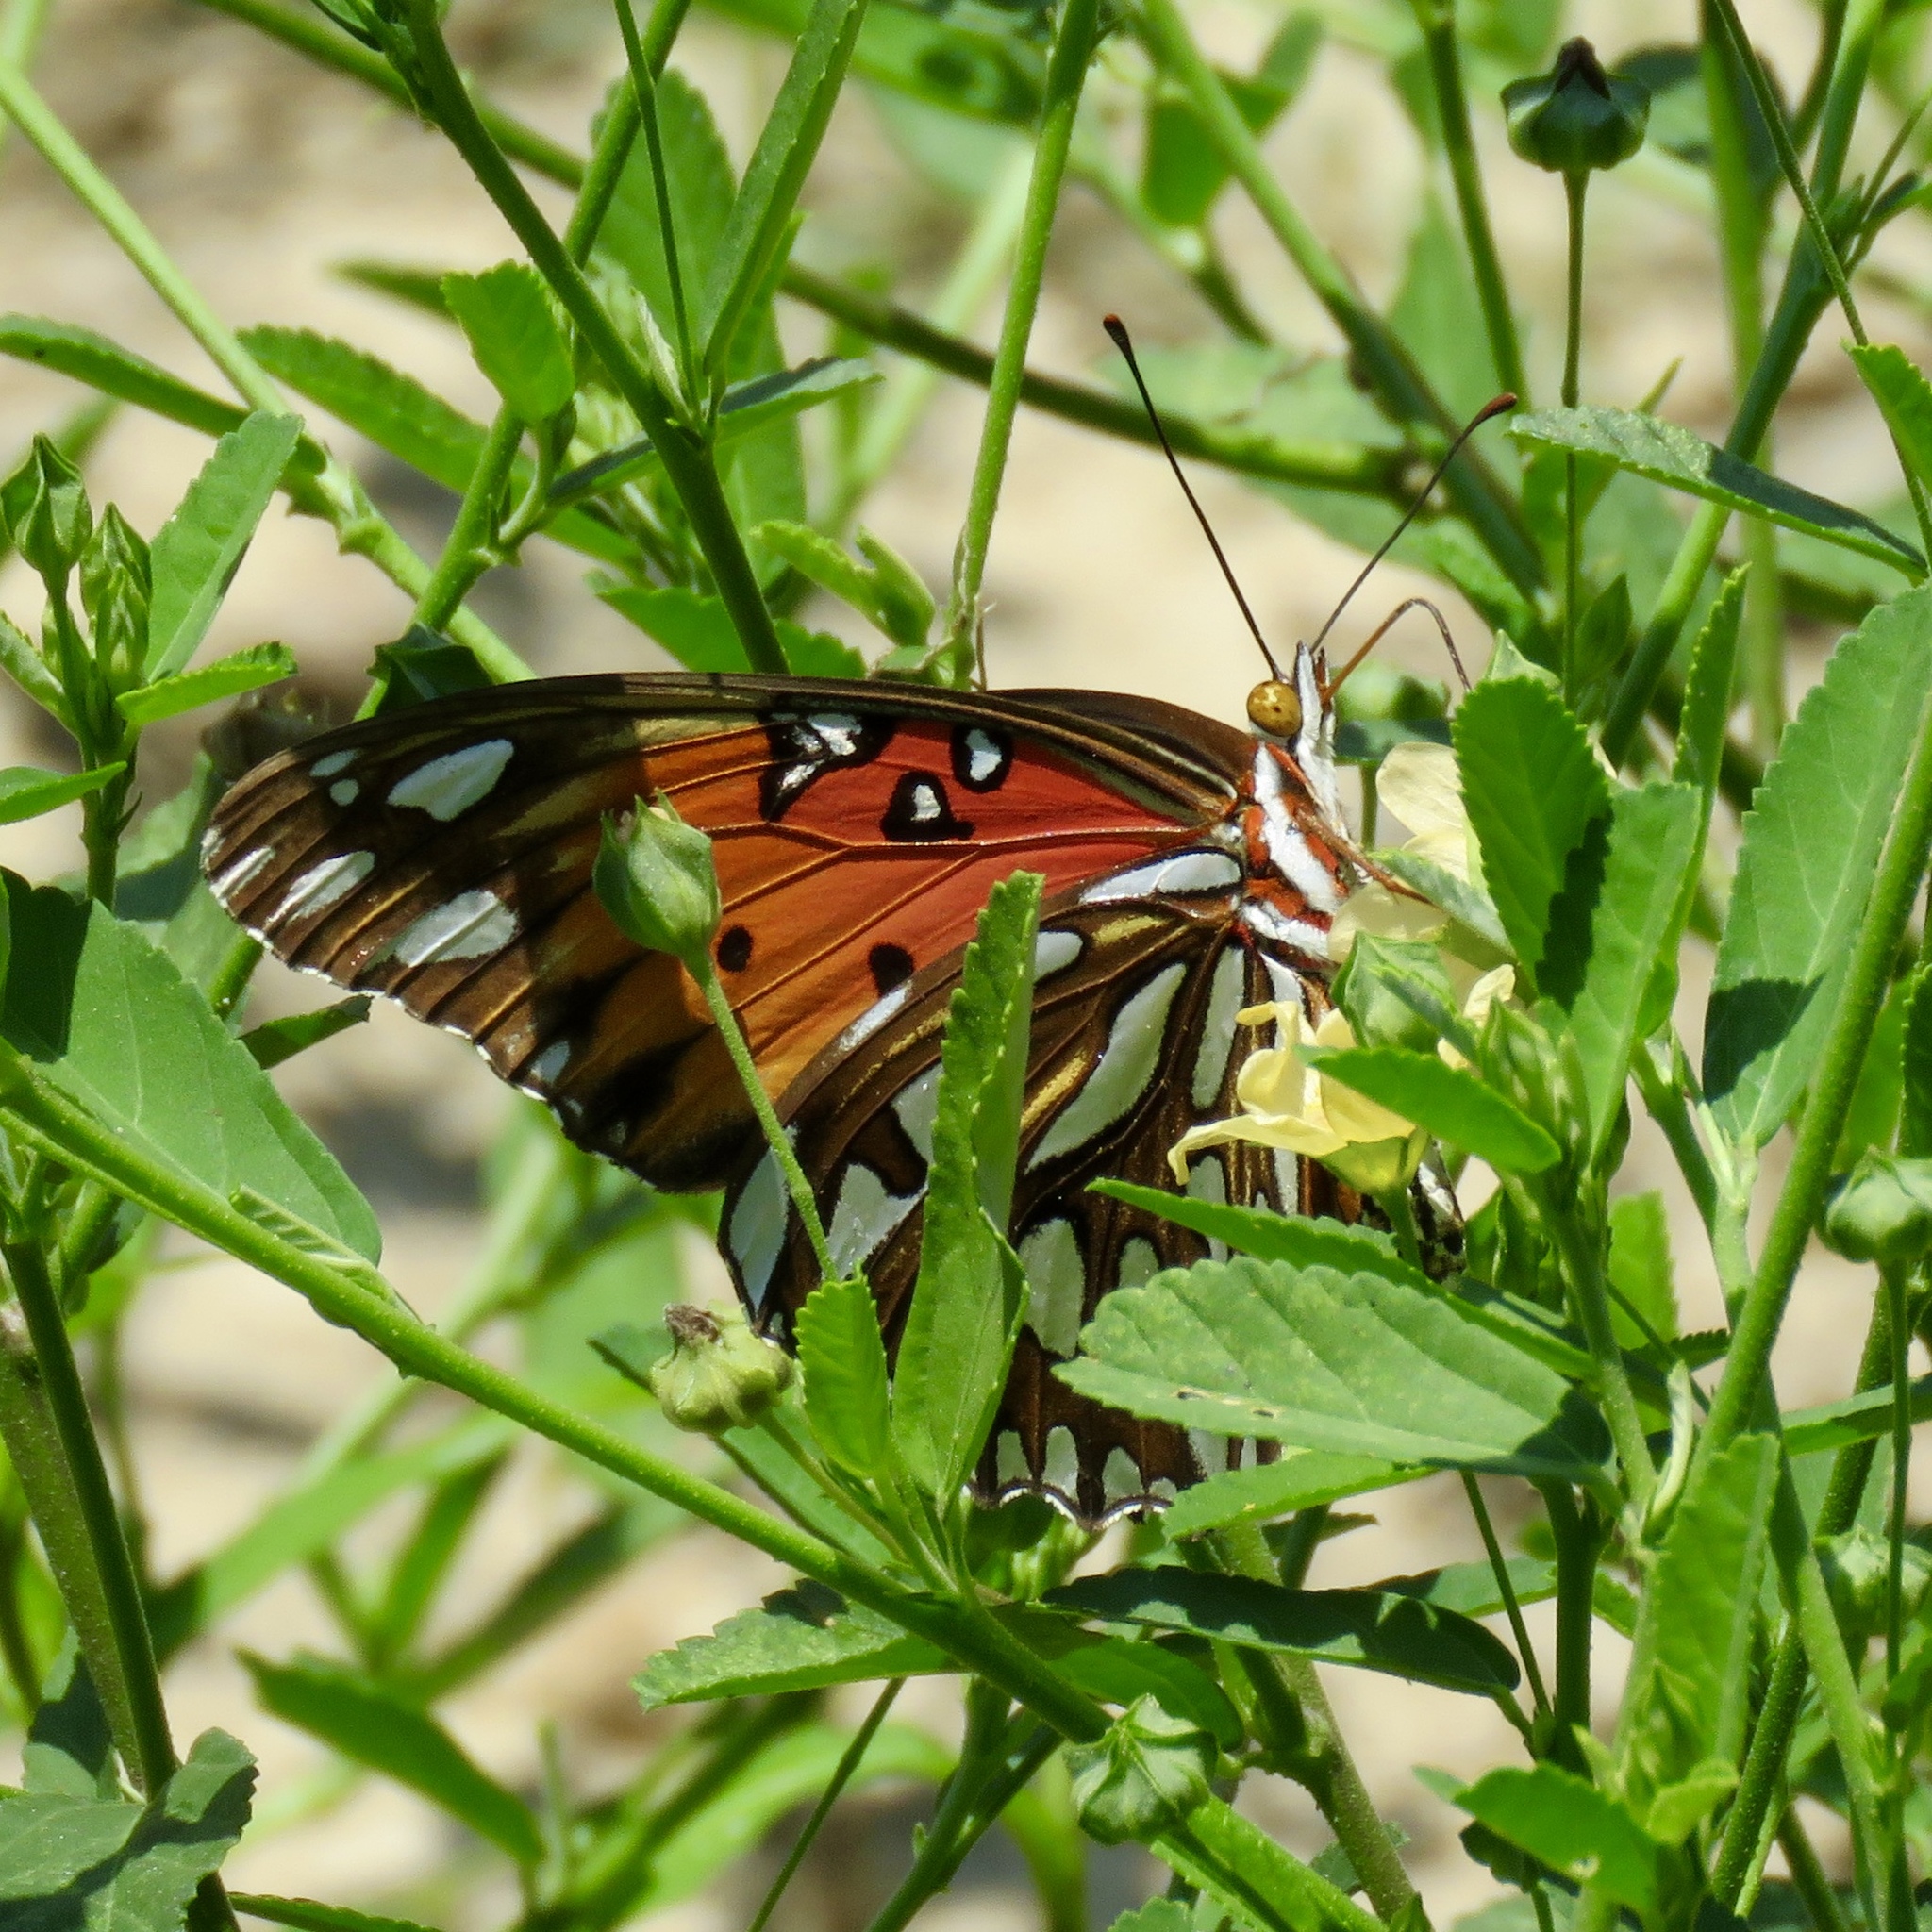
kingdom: Animalia
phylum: Arthropoda
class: Insecta
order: Lepidoptera
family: Nymphalidae
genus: Dione
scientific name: Dione vanillae
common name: Gulf fritillary
